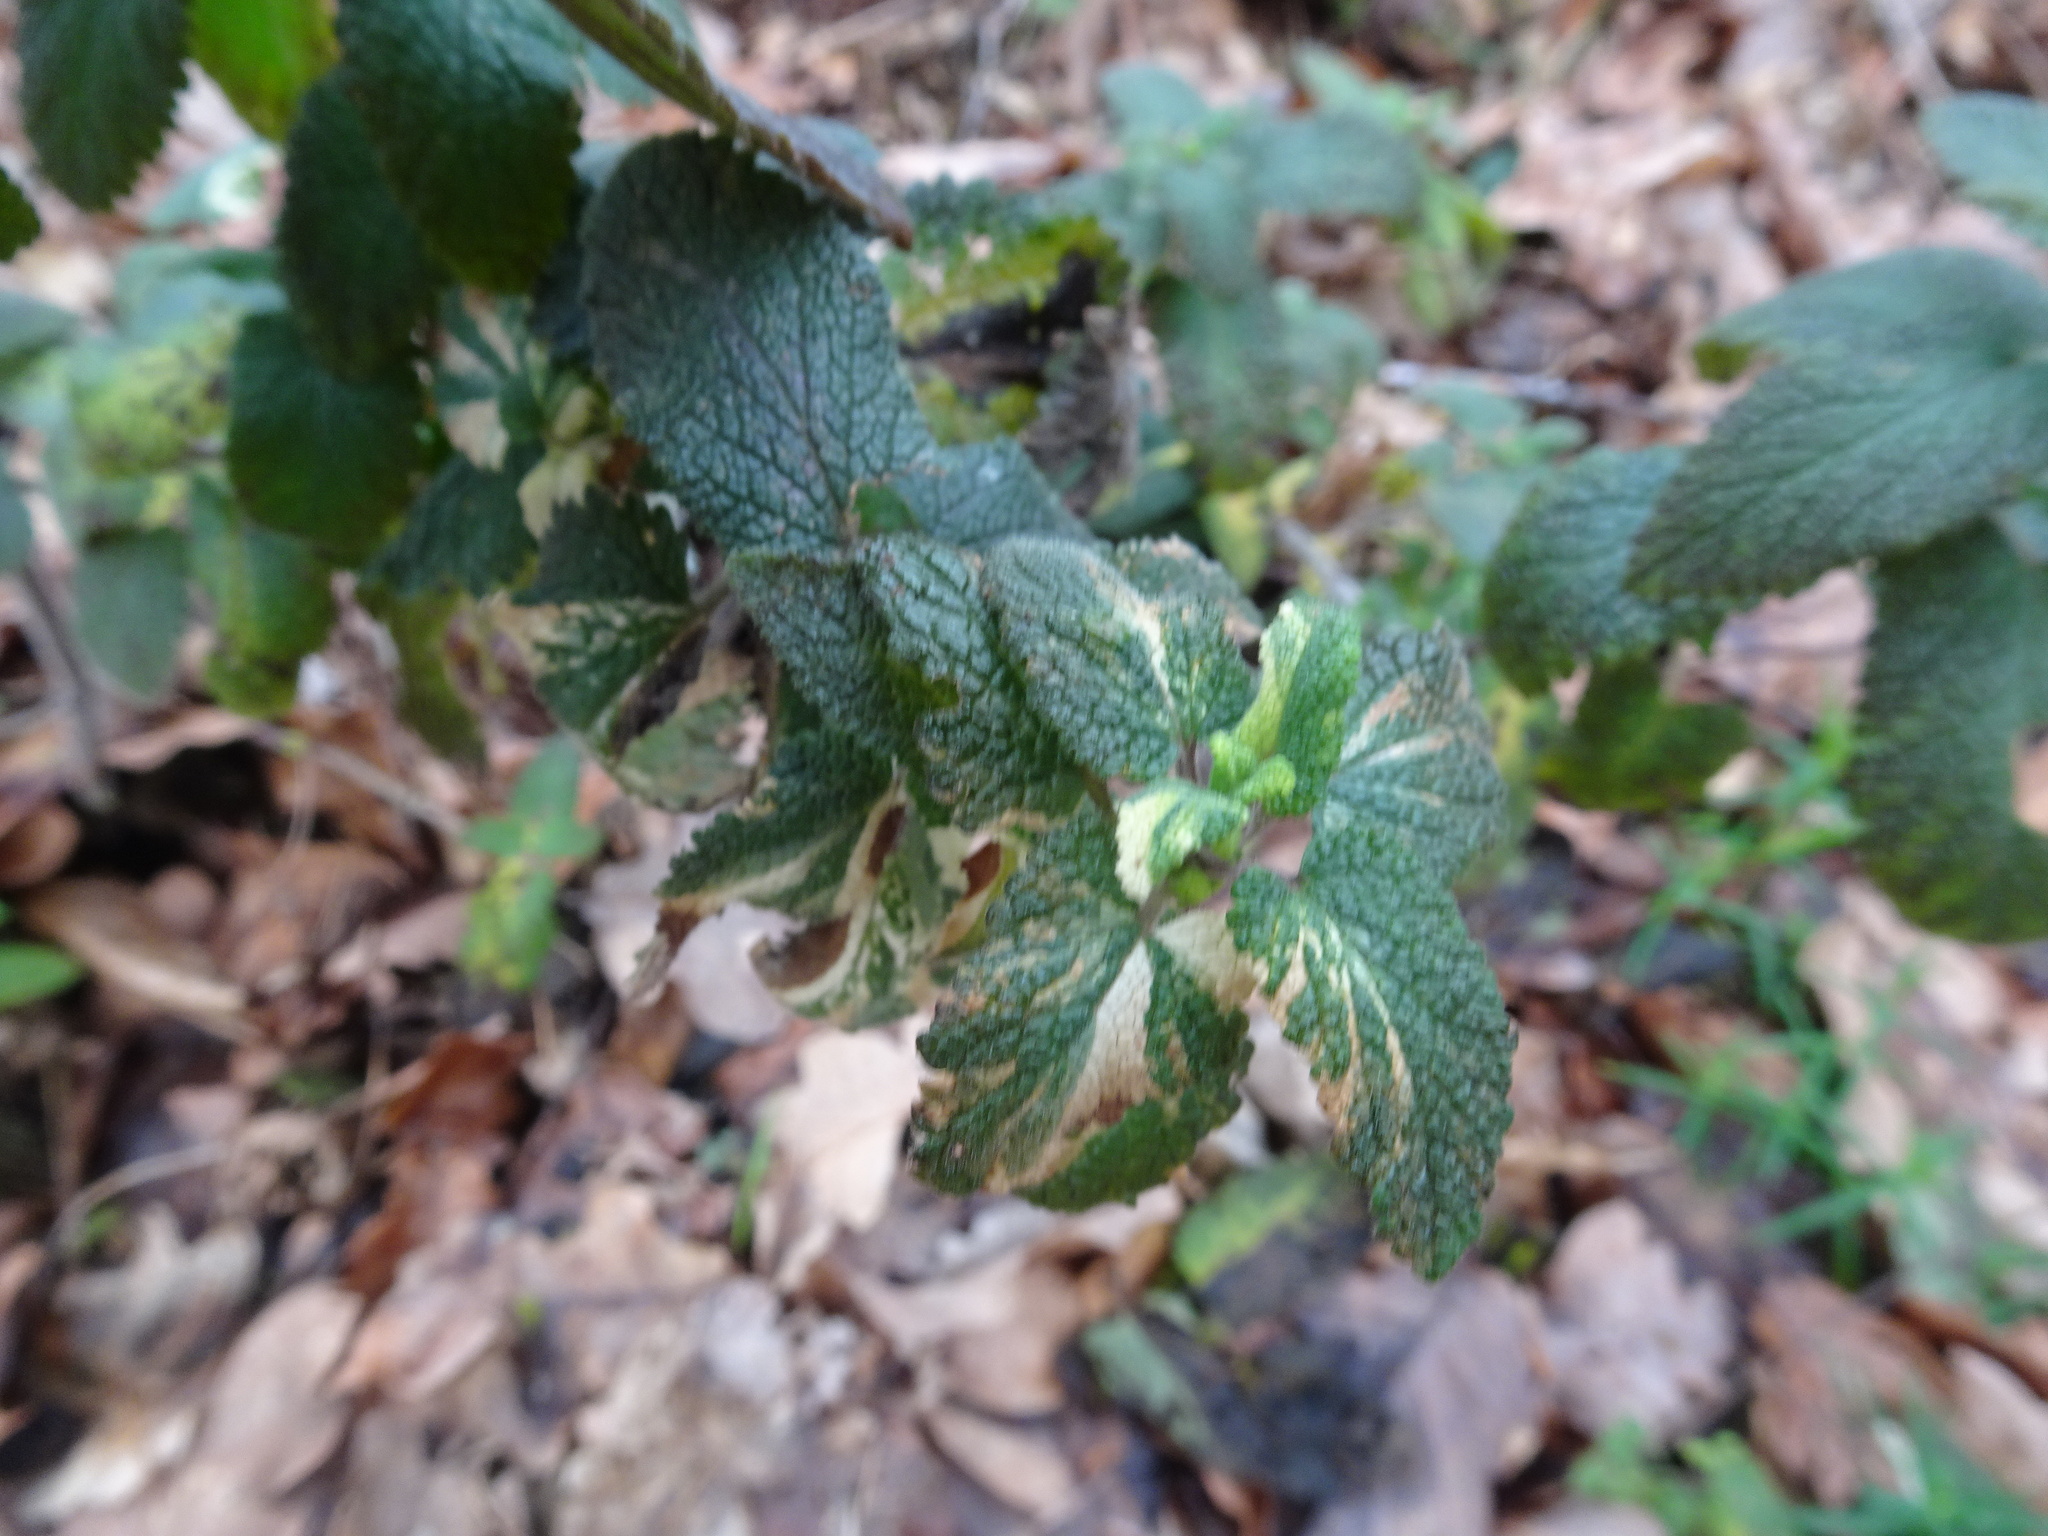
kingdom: Plantae
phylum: Tracheophyta
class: Magnoliopsida
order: Lamiales
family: Lamiaceae
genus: Teucrium
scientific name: Teucrium scorodonia
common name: Woodland germander
